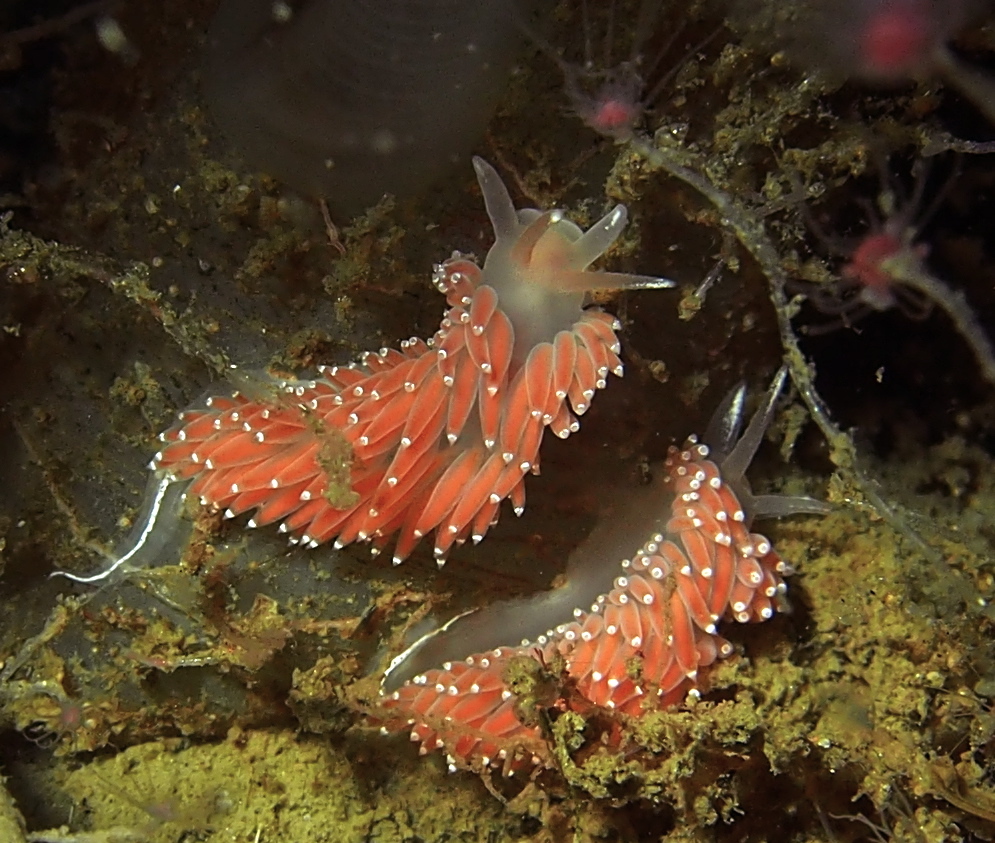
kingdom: Animalia
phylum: Mollusca
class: Gastropoda
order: Nudibranchia
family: Coryphellidae
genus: Coryphella
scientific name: Coryphella verrucosa
